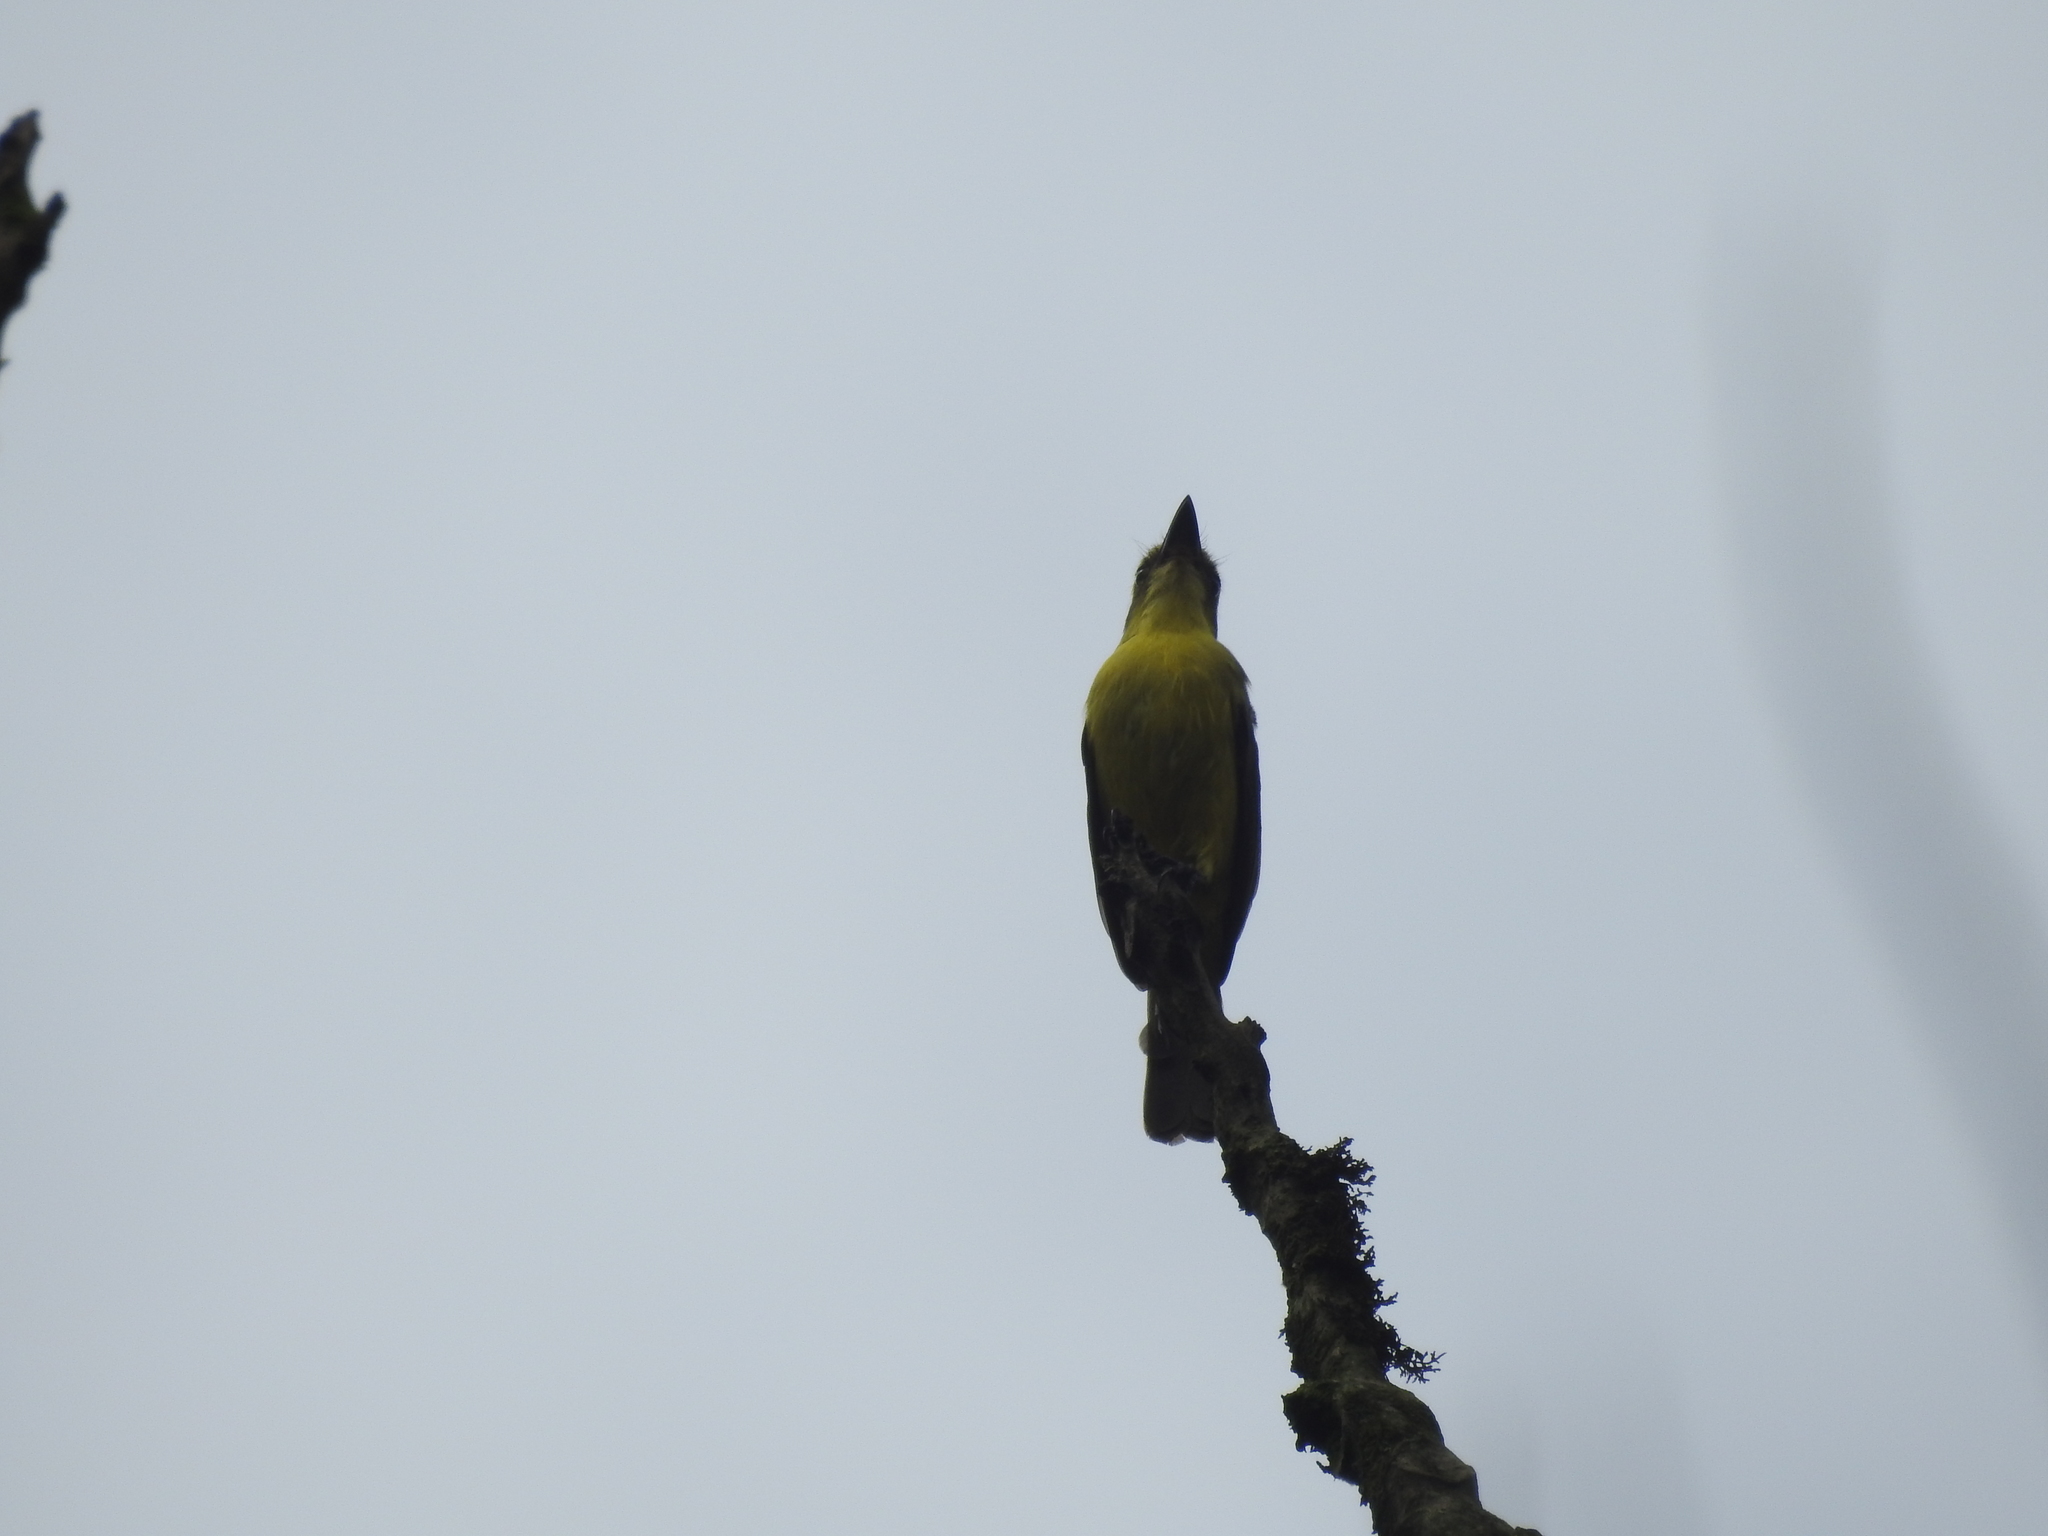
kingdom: Animalia
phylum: Chordata
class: Aves
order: Passeriformes
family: Tyrannidae
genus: Conopias
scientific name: Conopias cinchoneti
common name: Lemon-browed flycatcher
